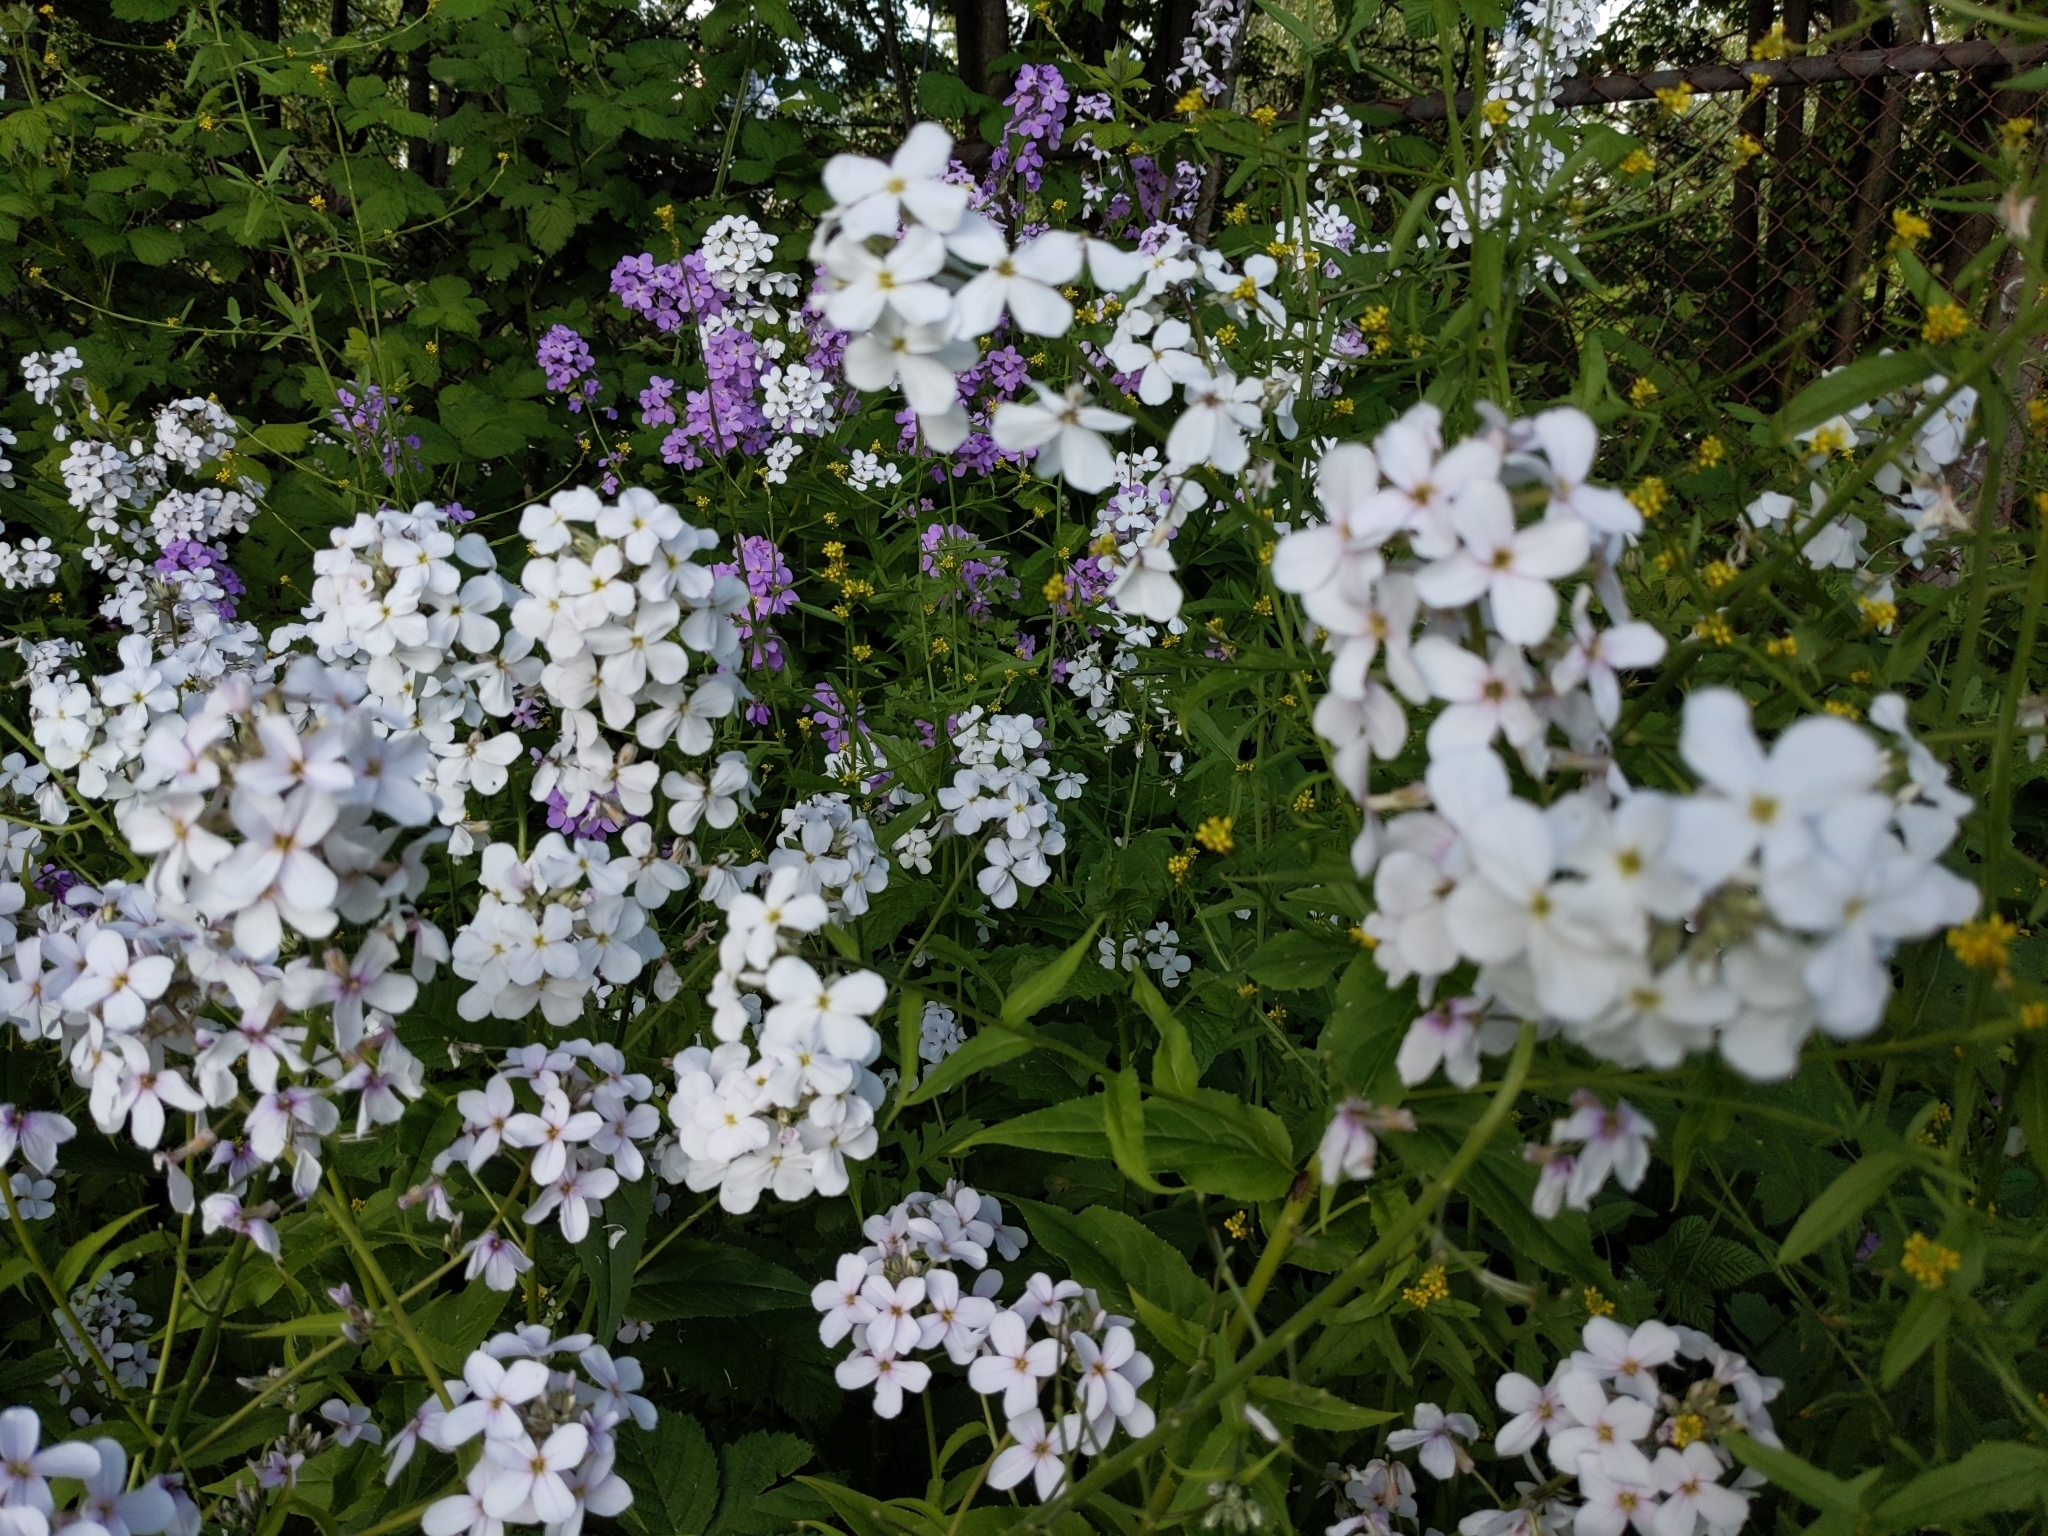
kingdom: Plantae
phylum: Tracheophyta
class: Magnoliopsida
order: Brassicales
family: Brassicaceae
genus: Hesperis
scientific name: Hesperis matronalis
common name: Dame's-violet
